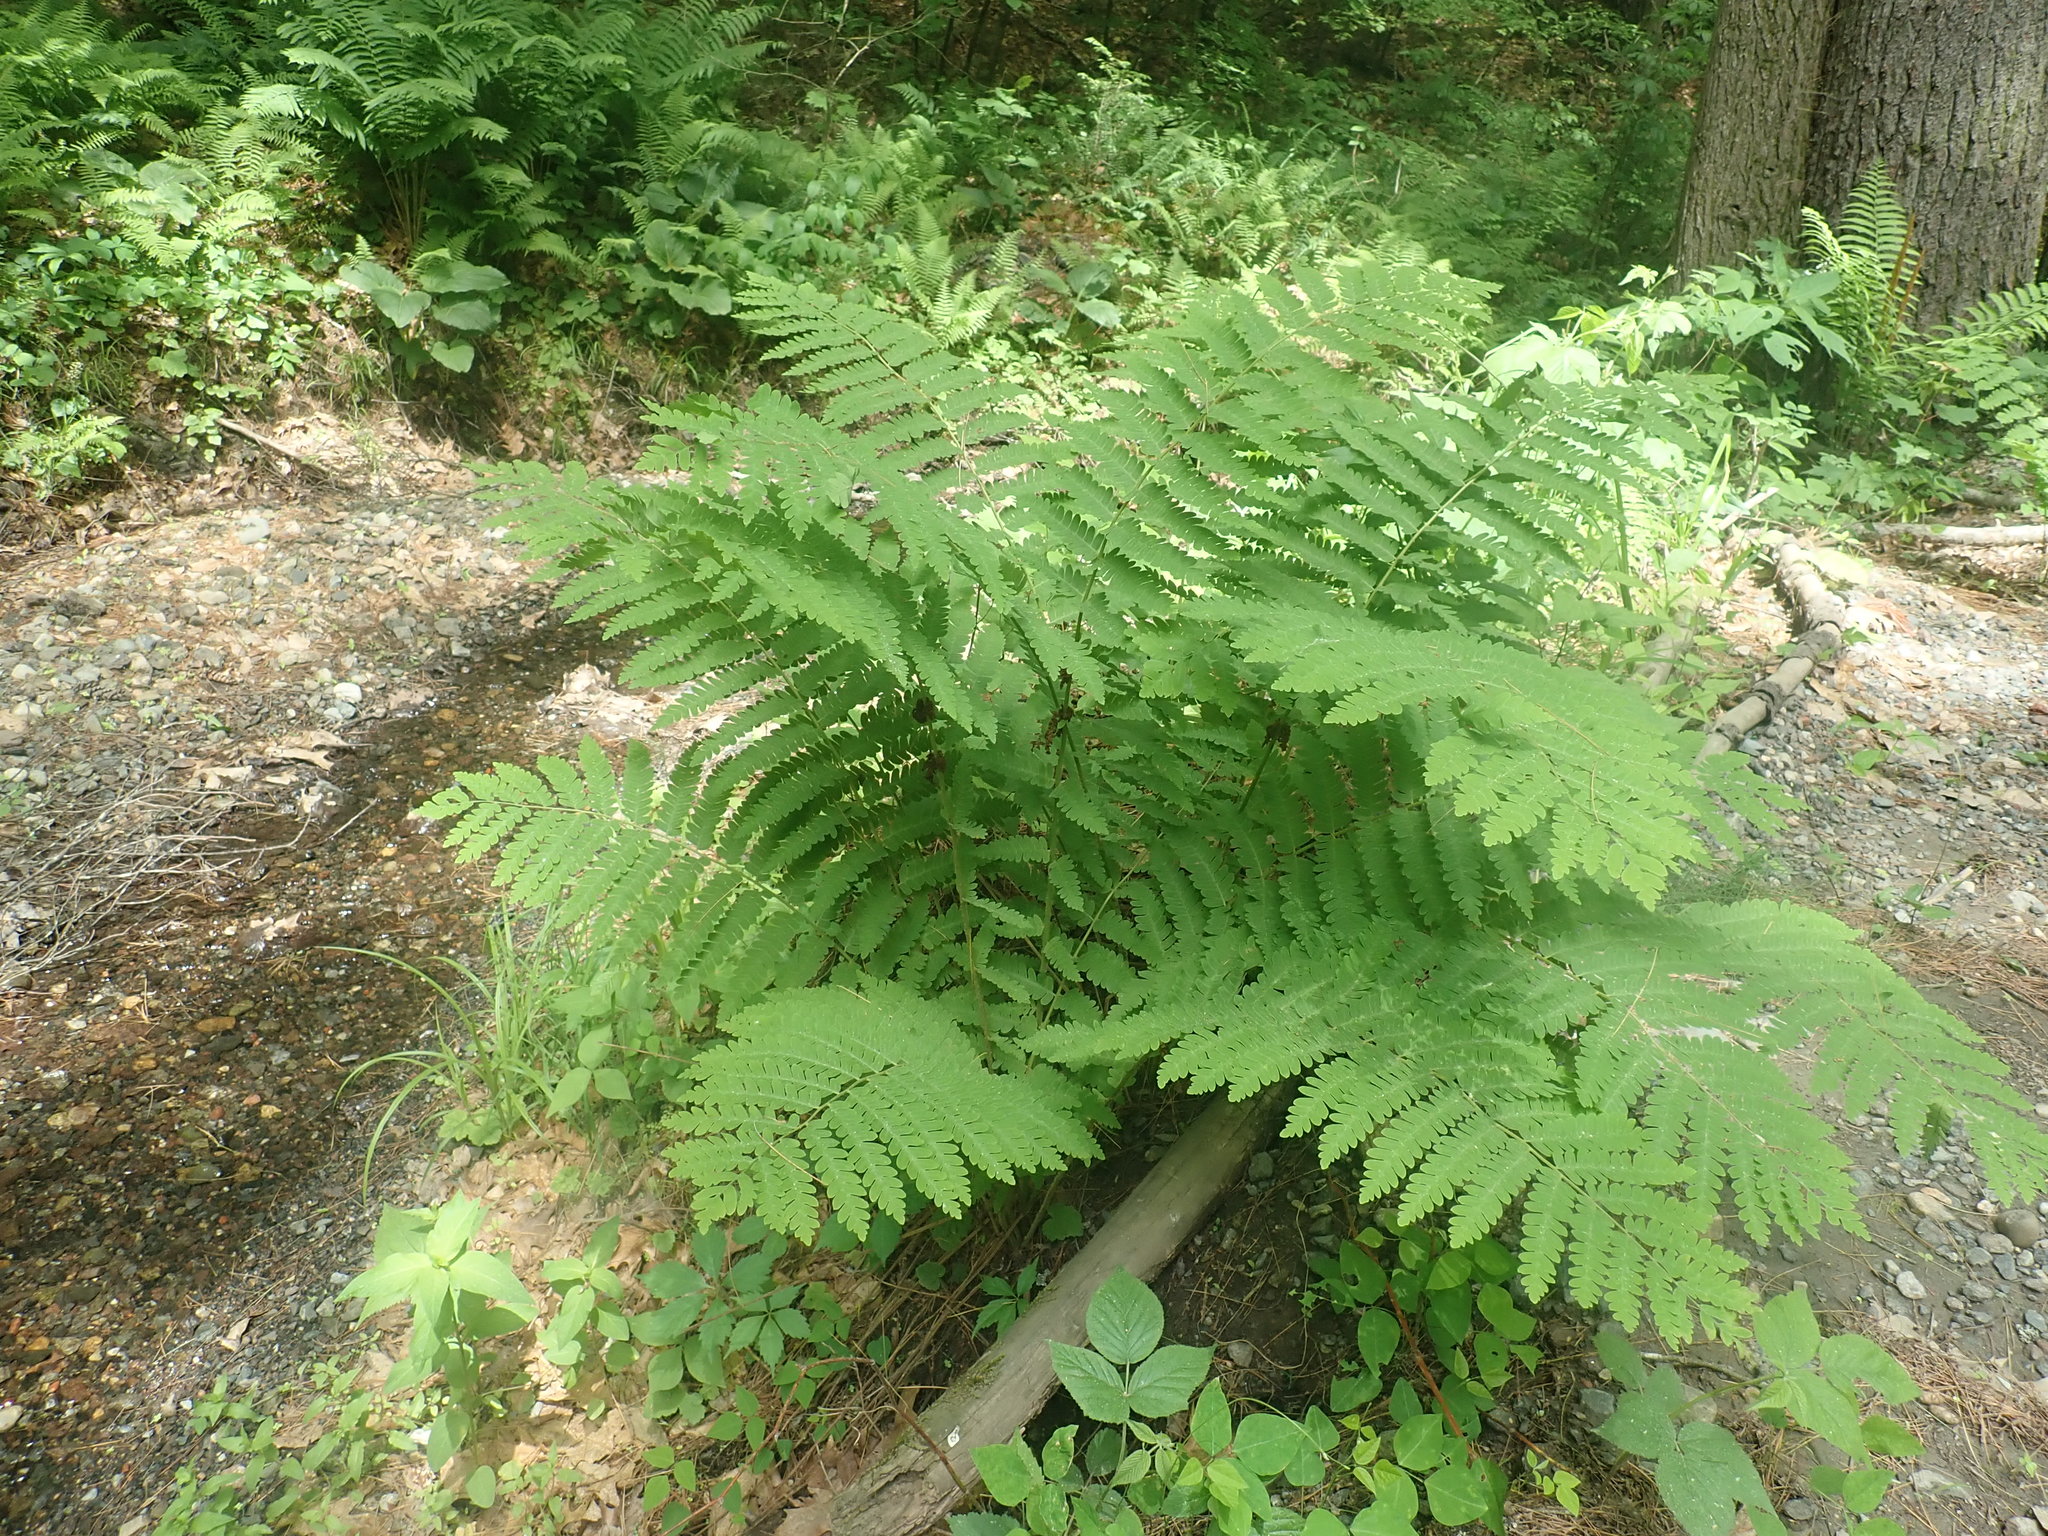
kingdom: Plantae
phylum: Tracheophyta
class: Polypodiopsida
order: Osmundales
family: Osmundaceae
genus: Claytosmunda
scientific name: Claytosmunda claytoniana
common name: Clayton's fern
